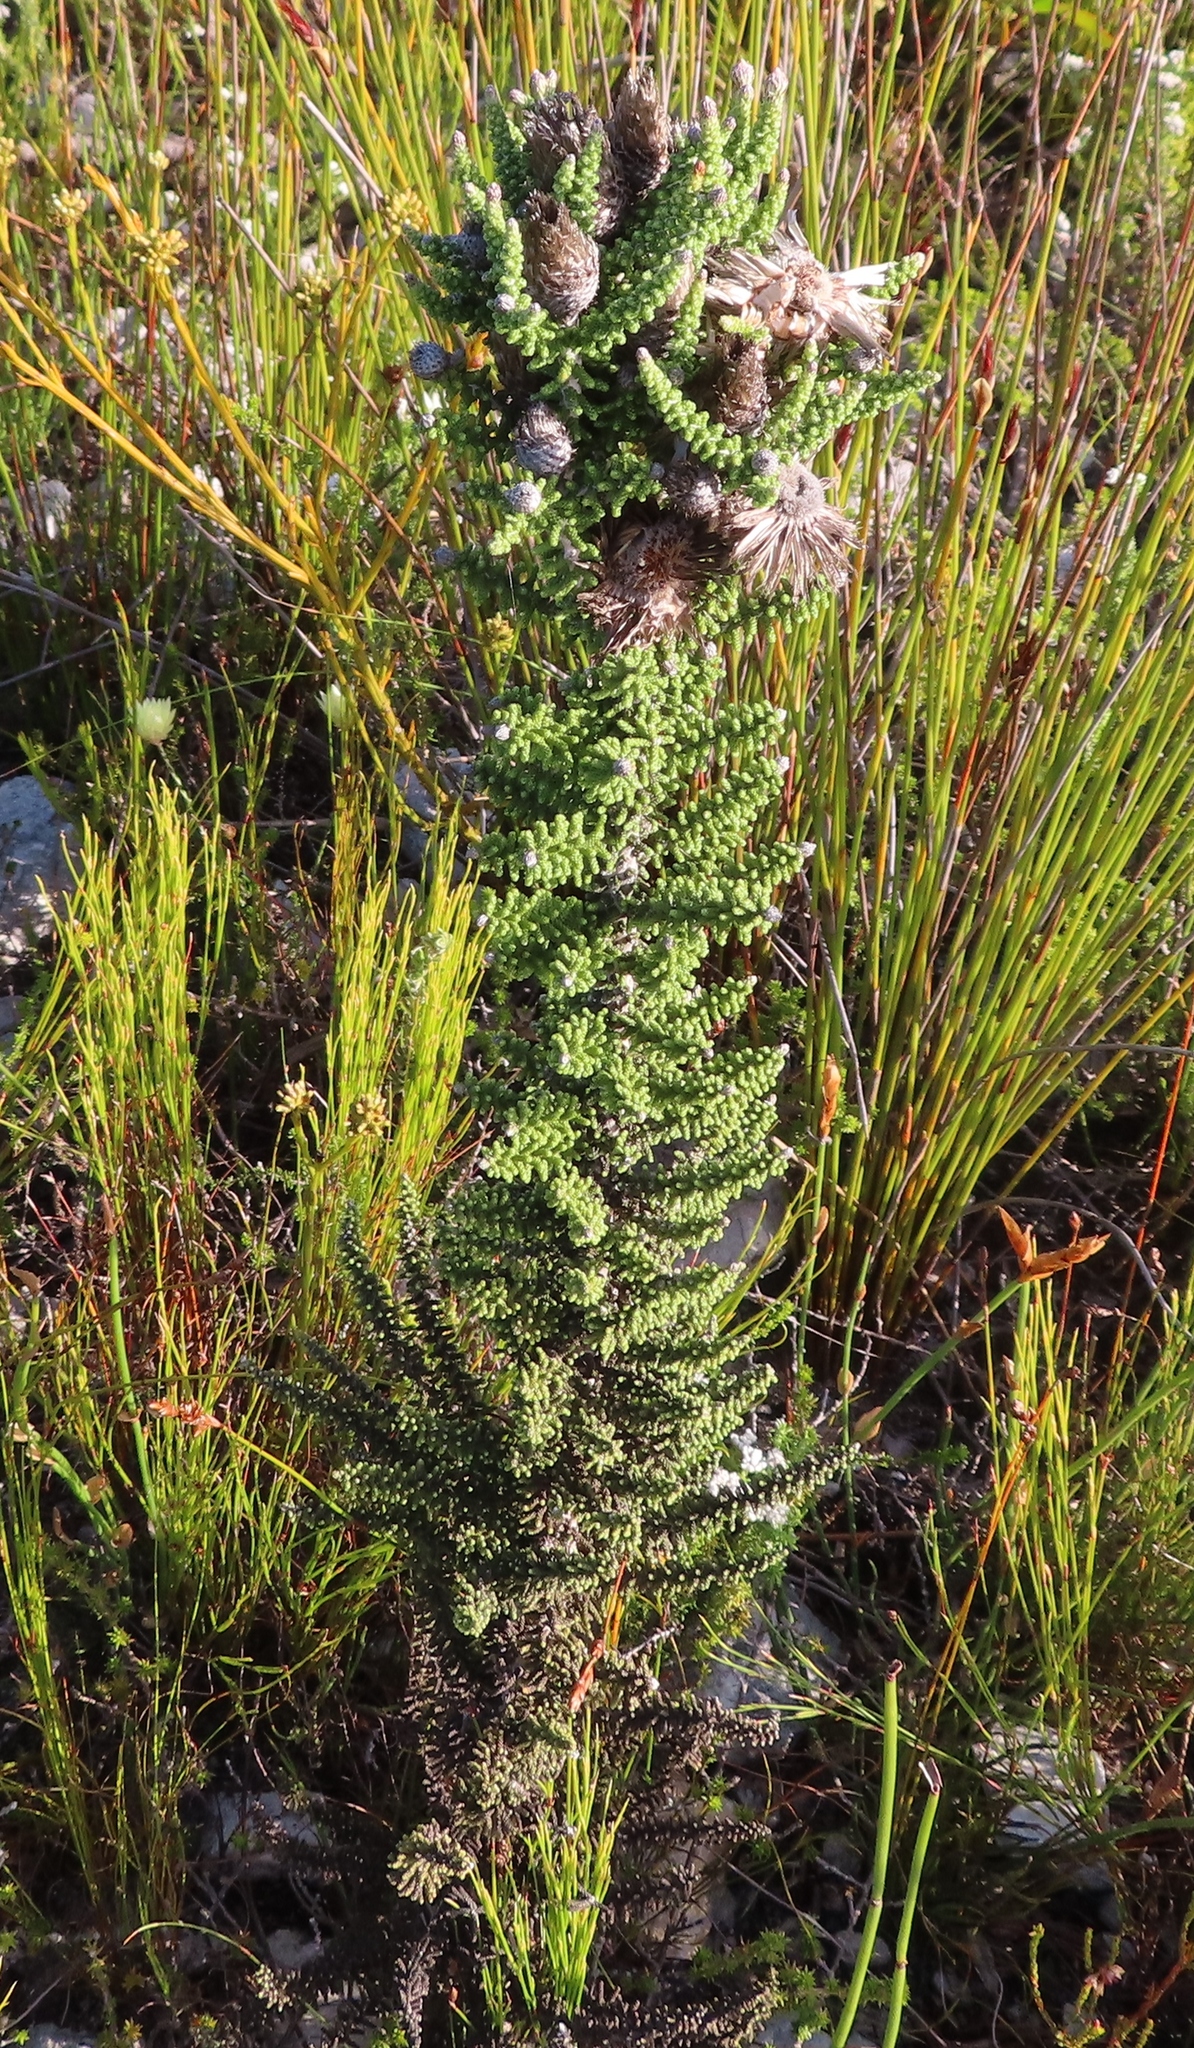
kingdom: Plantae
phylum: Tracheophyta
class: Magnoliopsida
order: Asterales
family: Asteraceae
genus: Phaenocoma
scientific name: Phaenocoma prolifera
